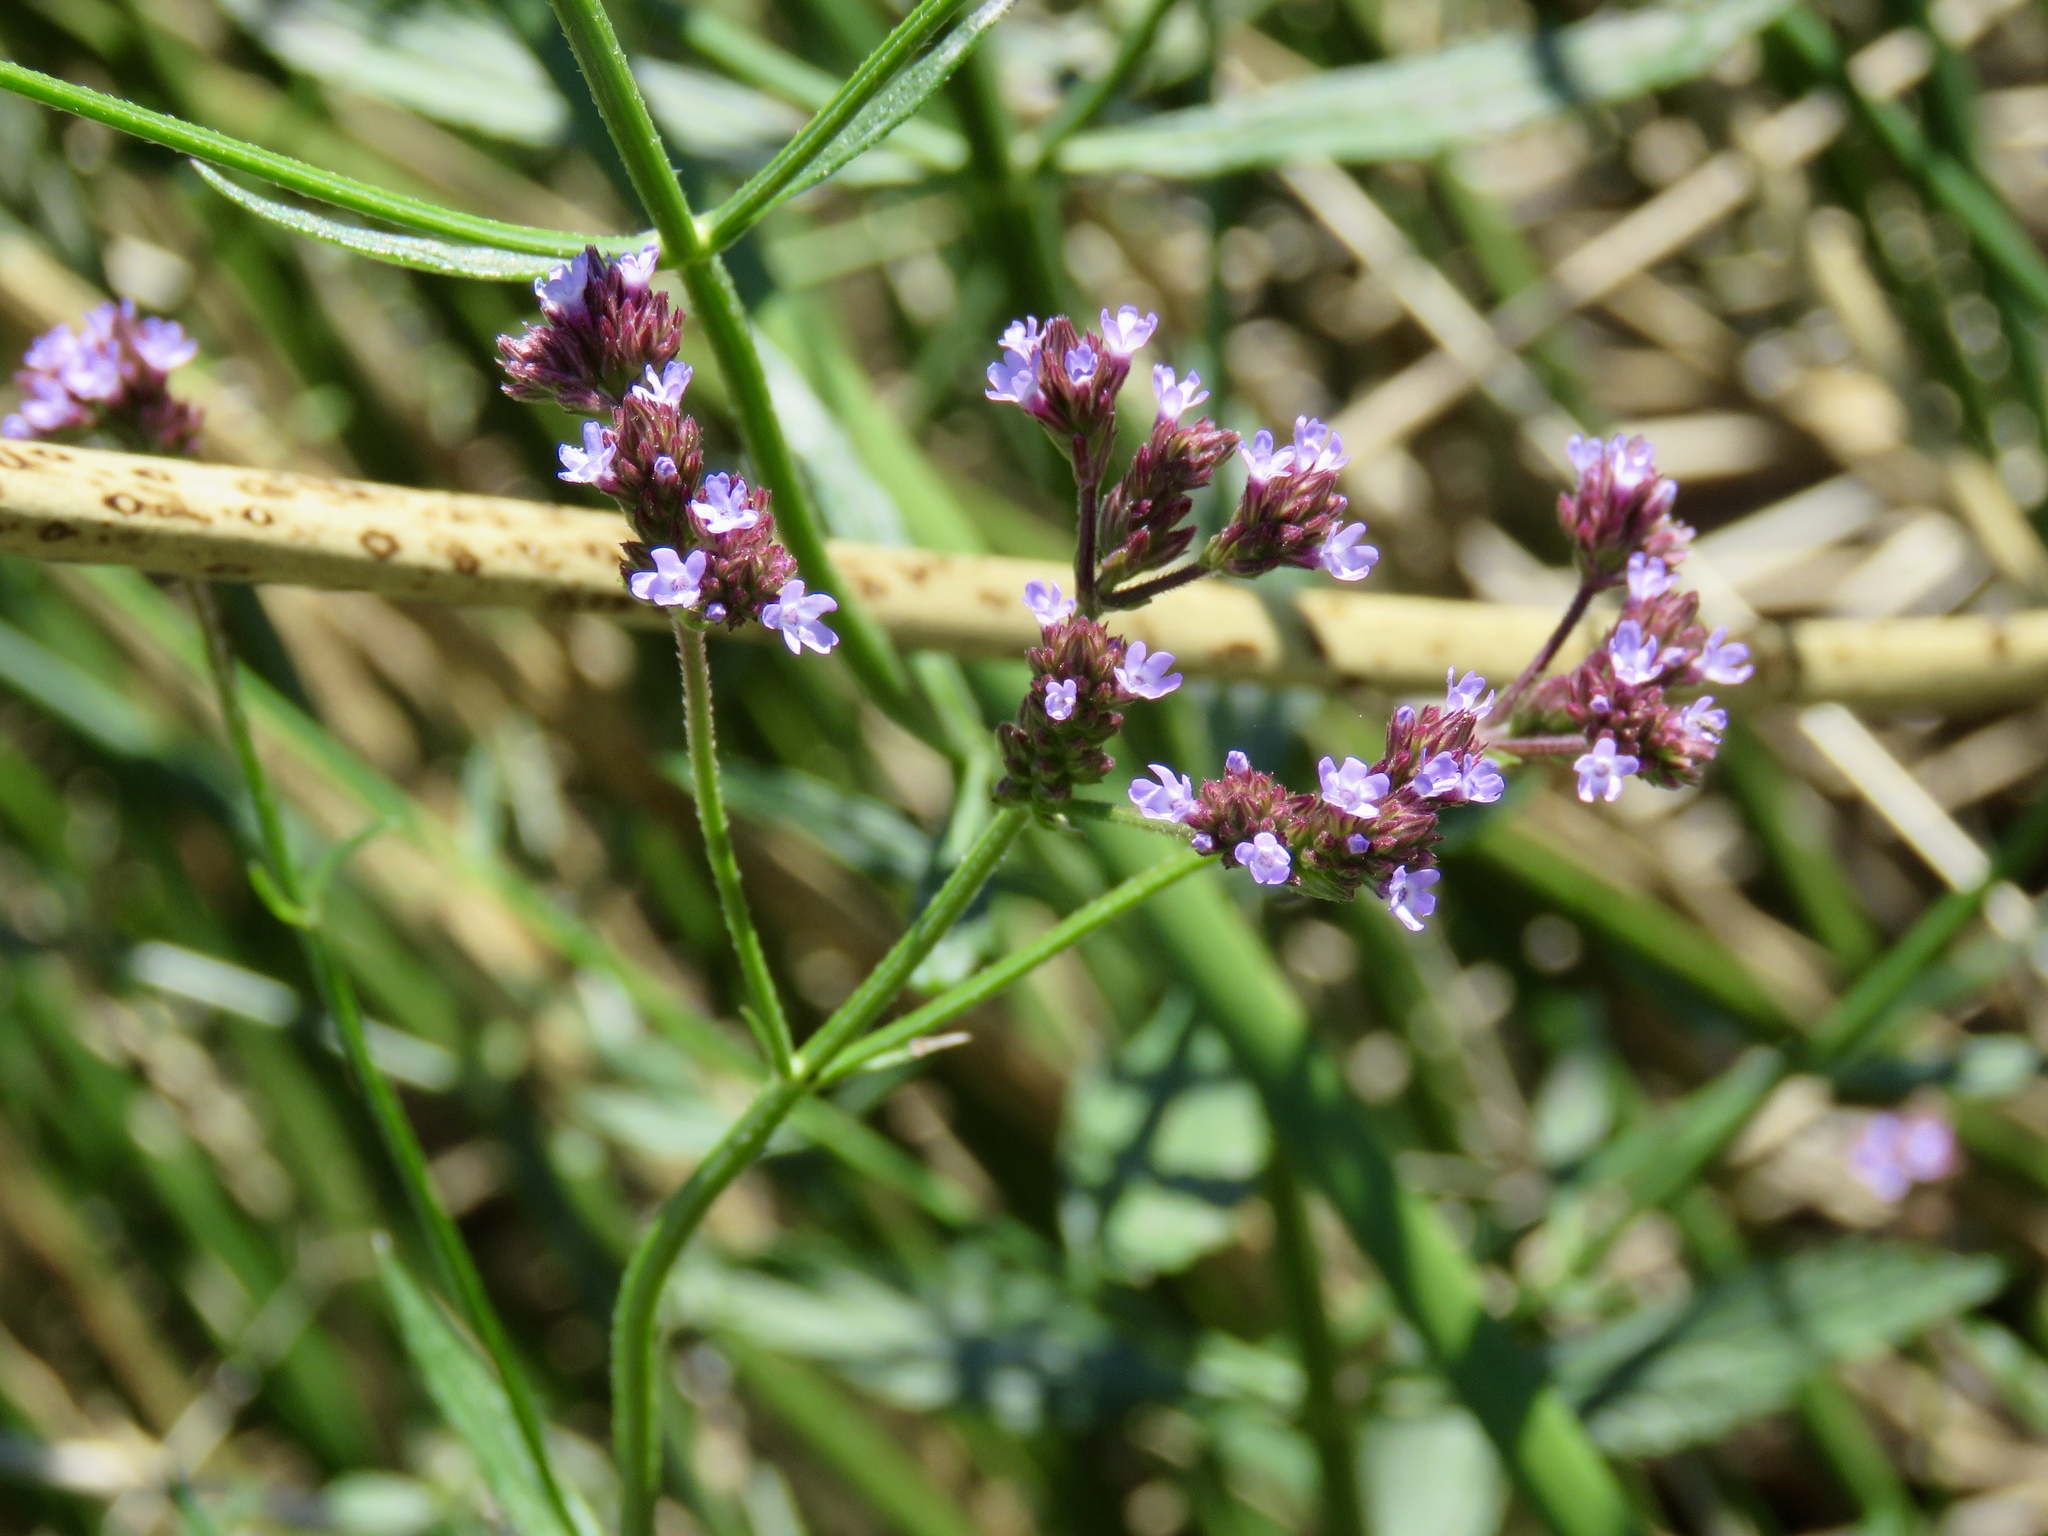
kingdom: Plantae
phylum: Tracheophyta
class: Magnoliopsida
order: Lamiales
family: Verbenaceae
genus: Verbena
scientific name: Verbena brasiliensis
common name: Brazilian vervain
